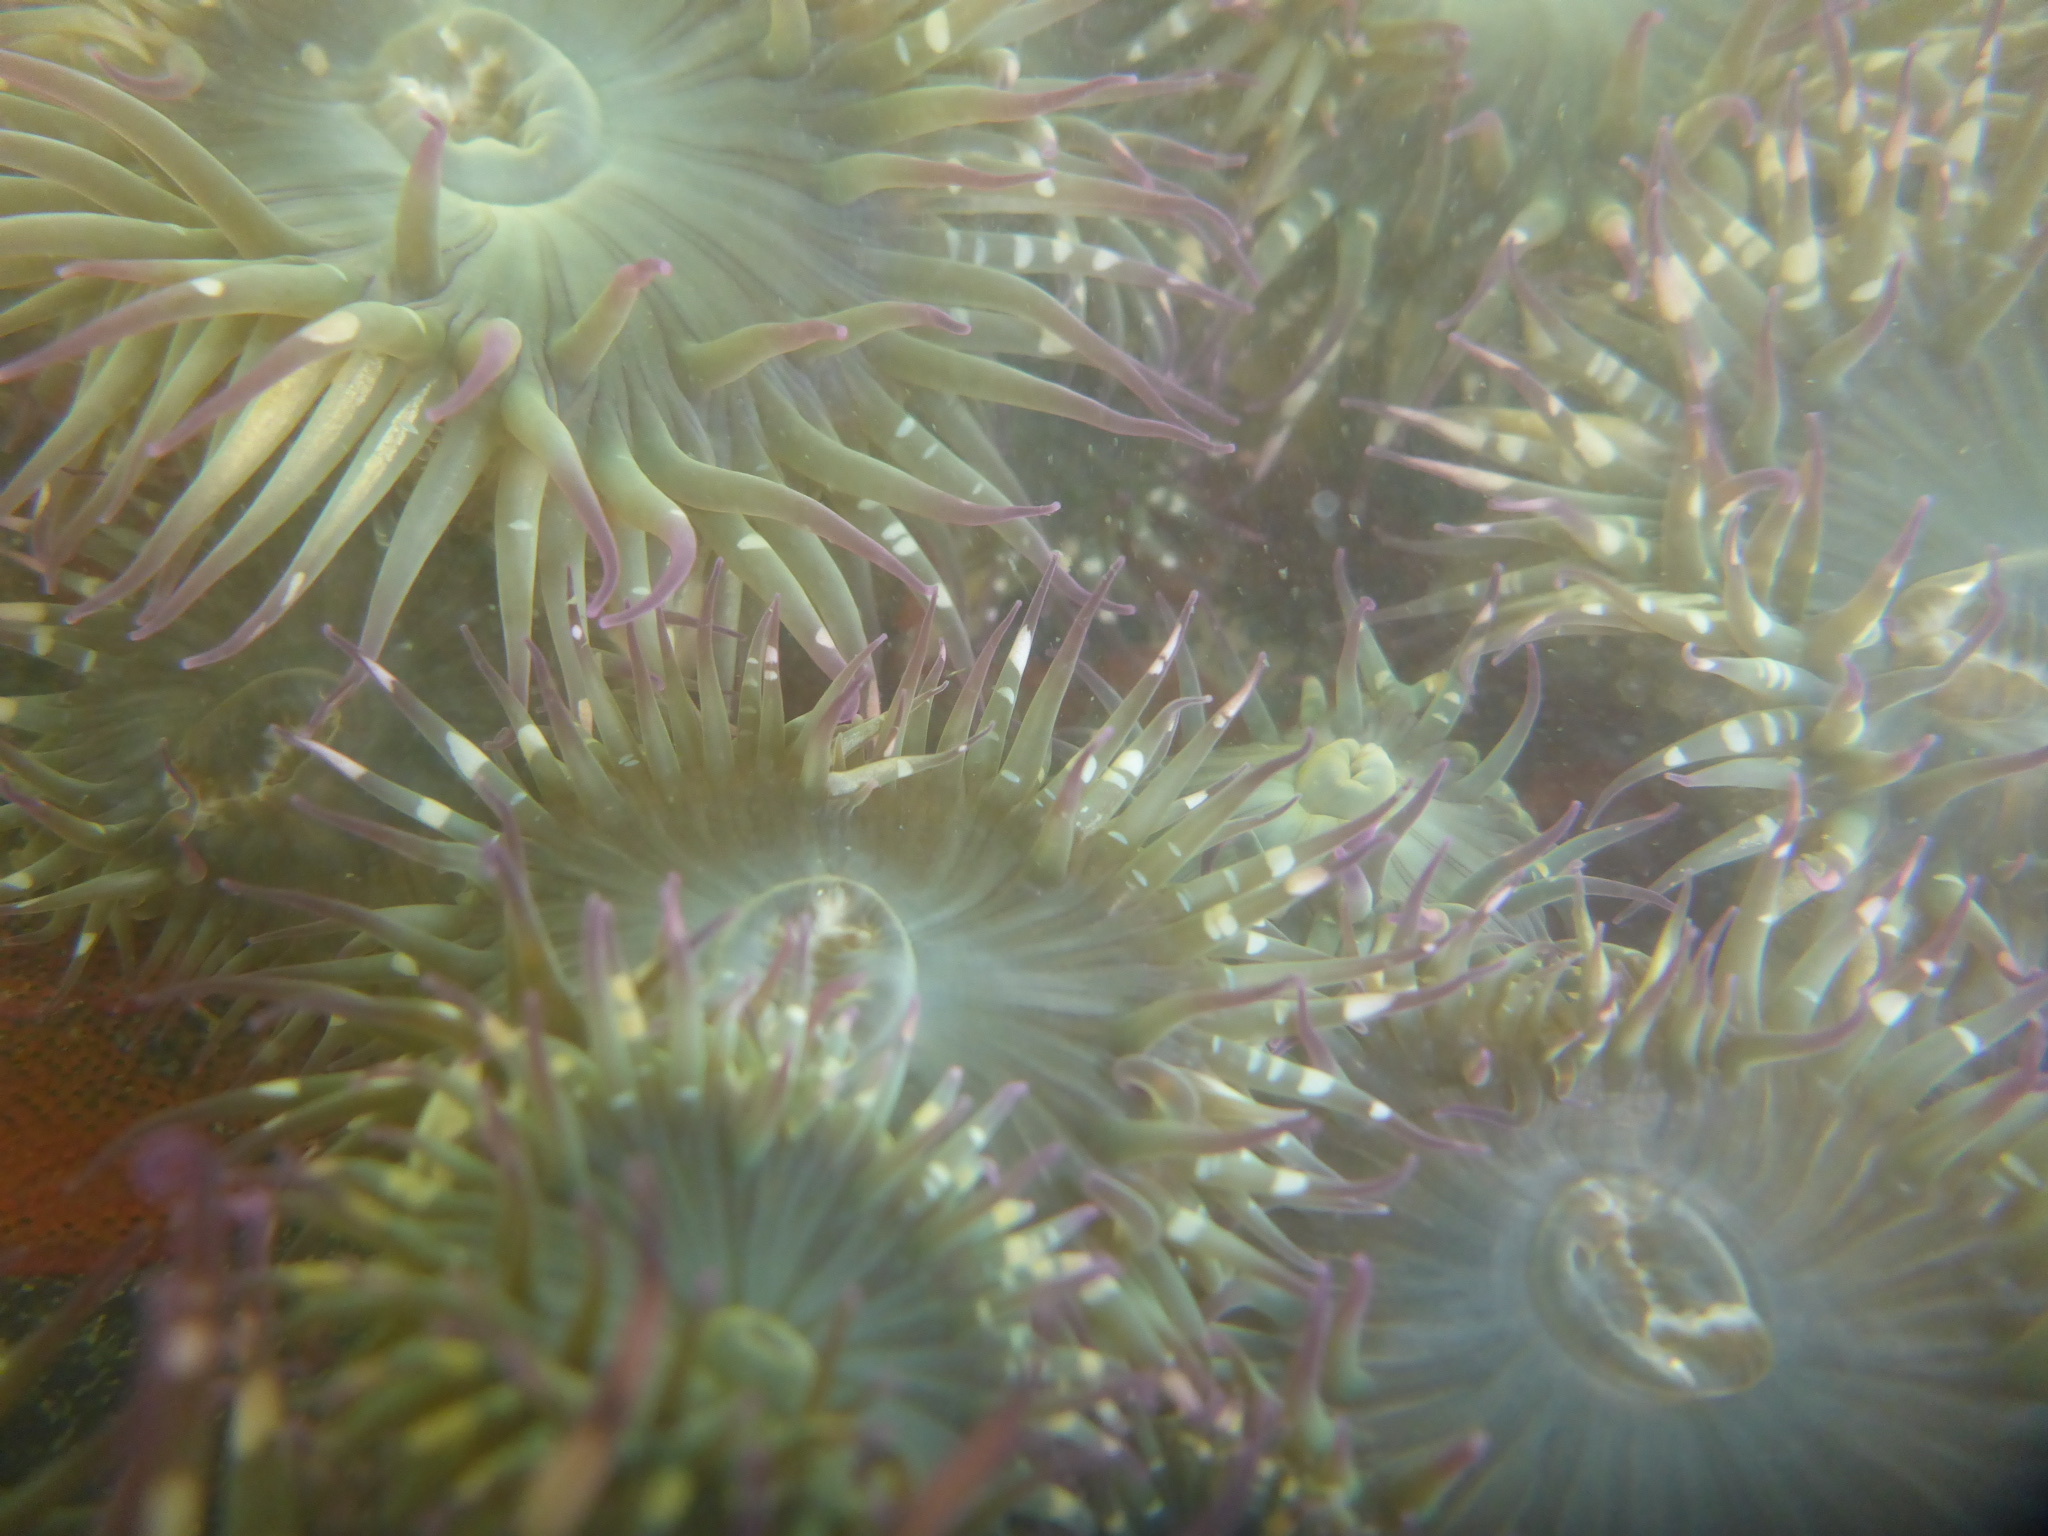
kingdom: Animalia
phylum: Cnidaria
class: Anthozoa
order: Actiniaria
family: Actiniidae
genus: Anthopleura
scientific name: Anthopleura elegantissima
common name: Clonal anemone
